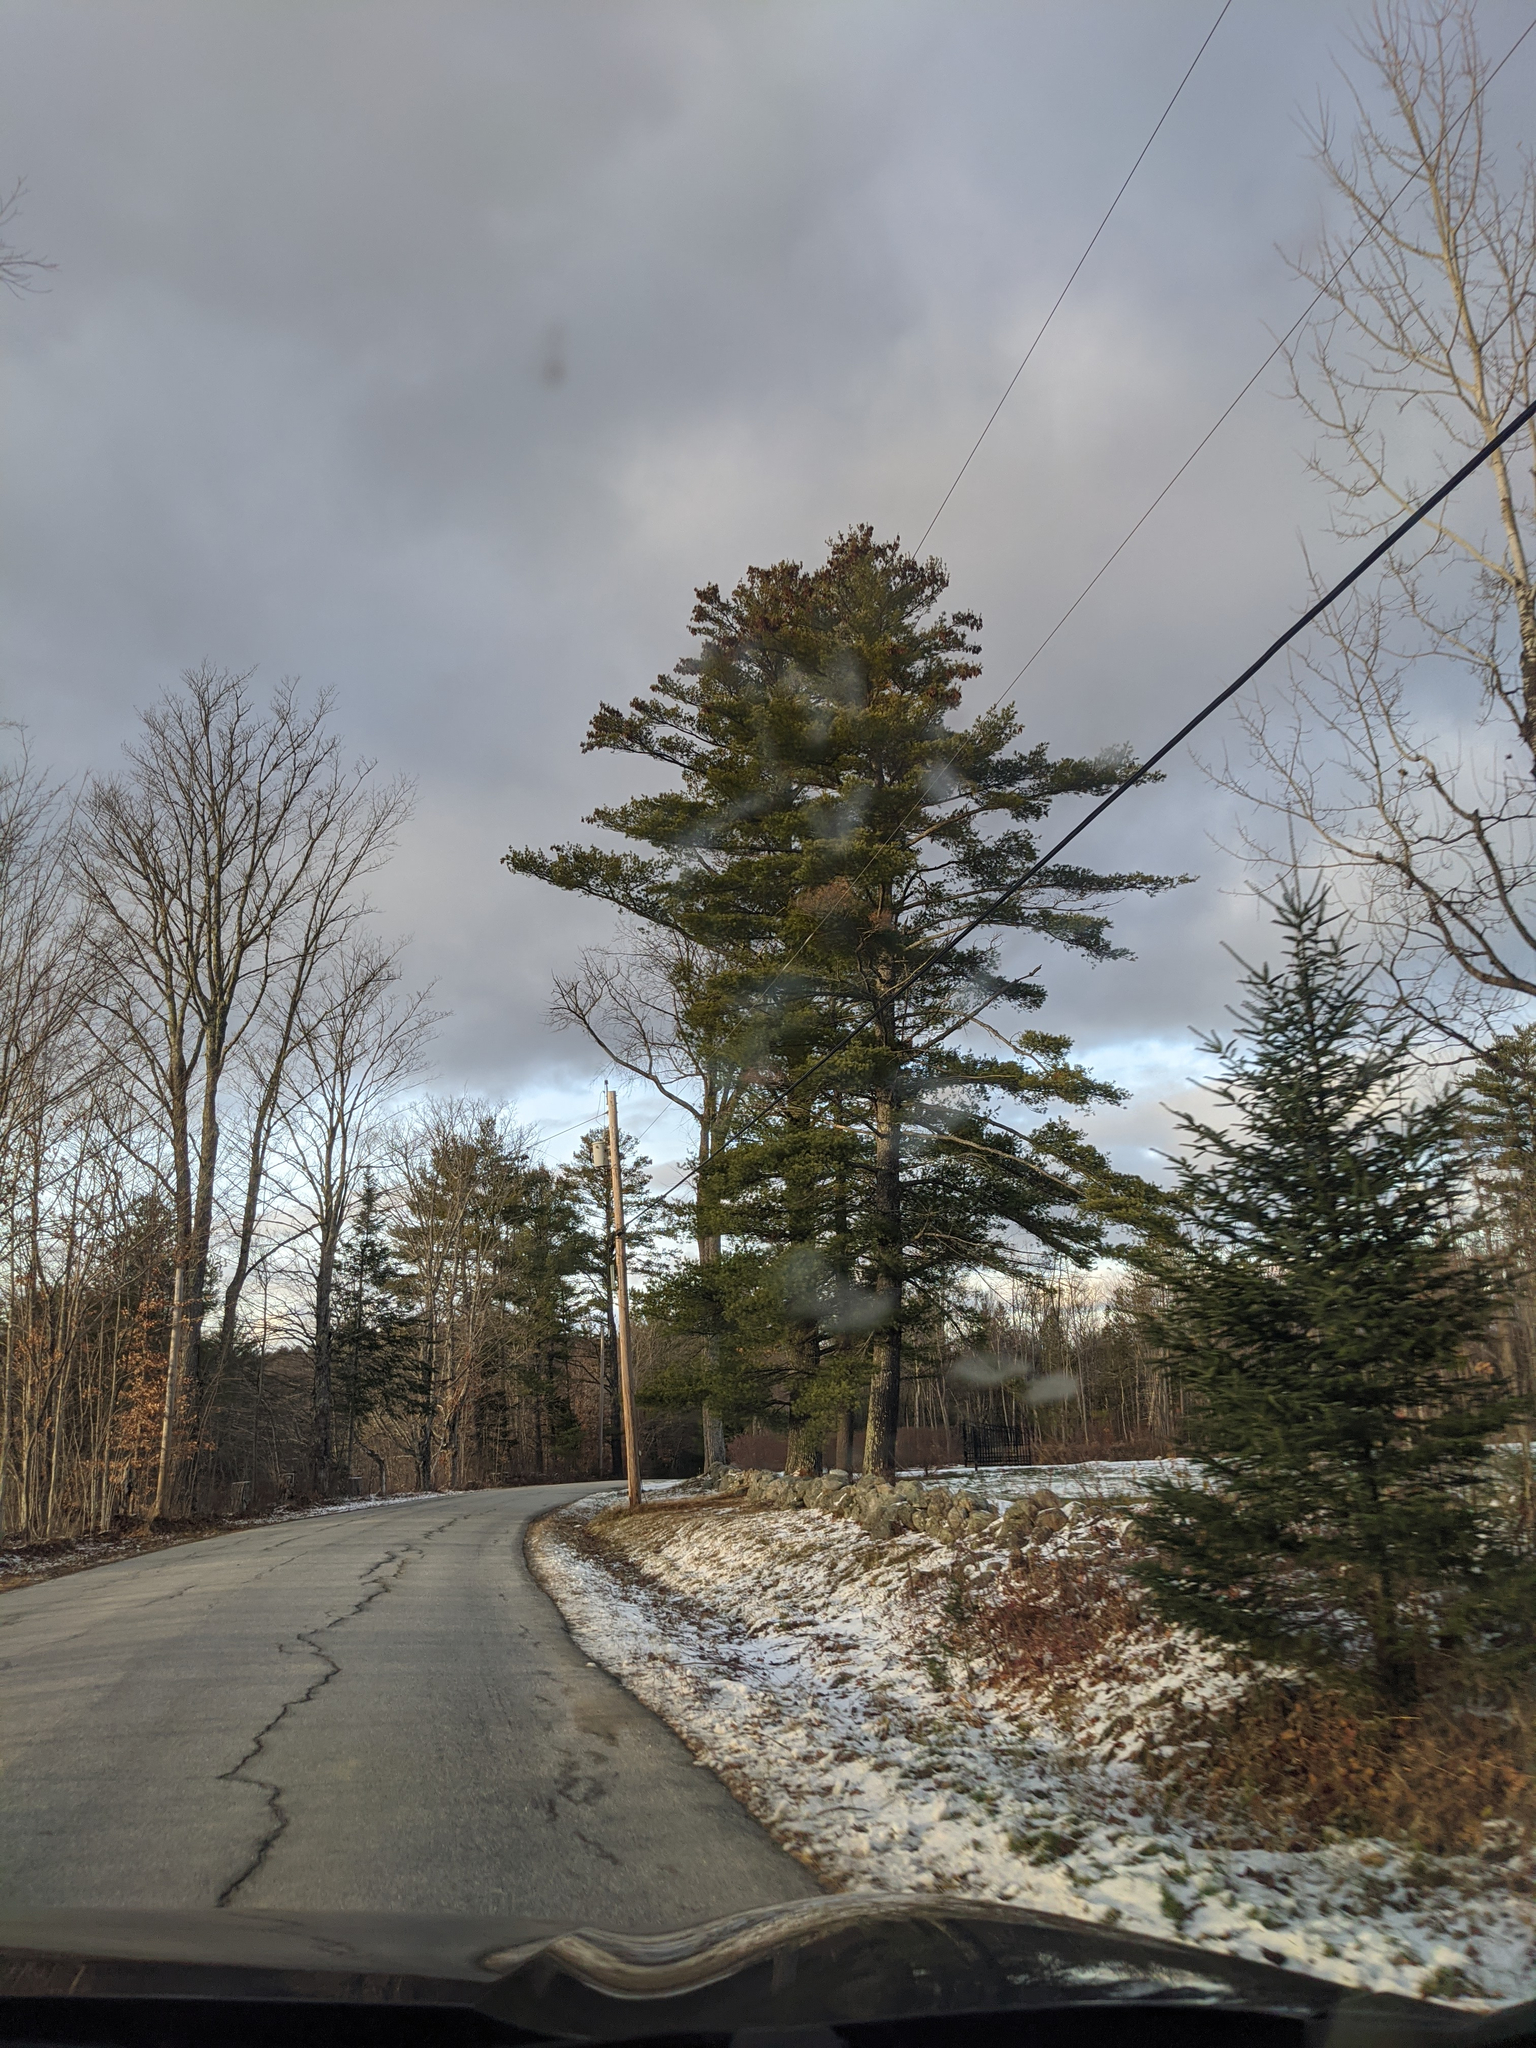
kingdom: Plantae
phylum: Tracheophyta
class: Pinopsida
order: Pinales
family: Pinaceae
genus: Pinus
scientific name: Pinus strobus
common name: Weymouth pine
